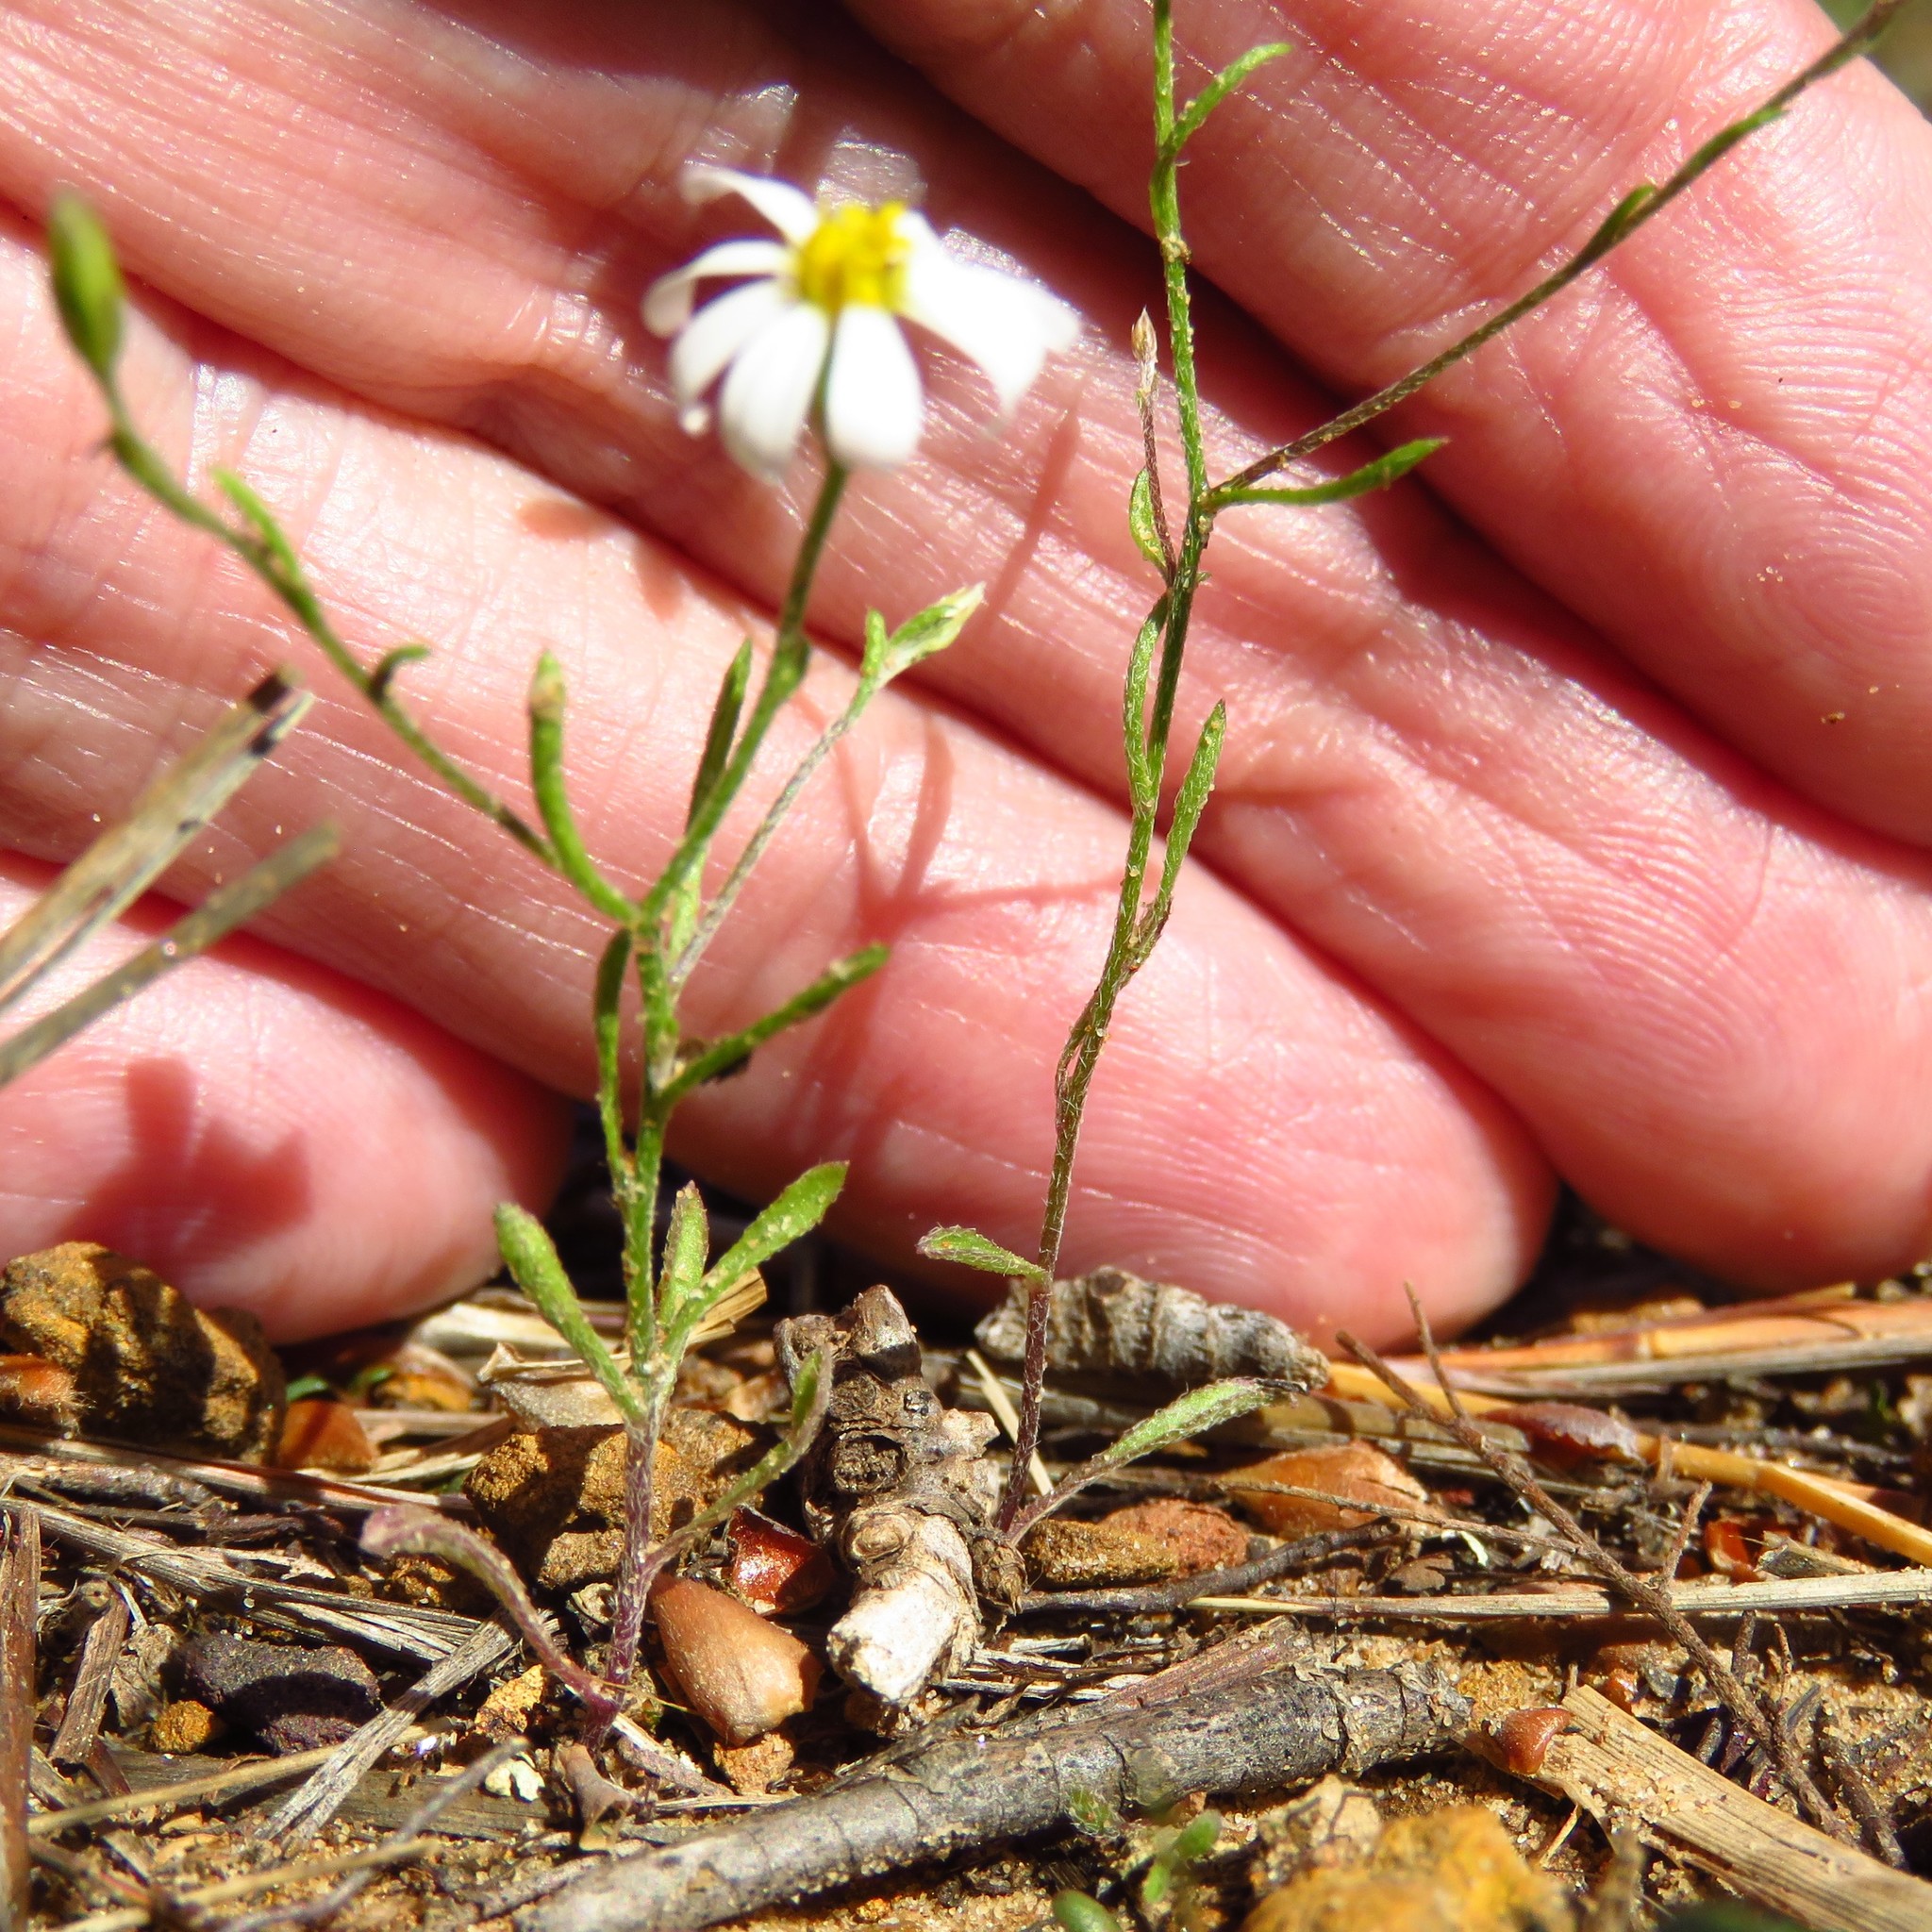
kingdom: Plantae
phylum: Tracheophyta
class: Magnoliopsida
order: Asterales
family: Asteraceae
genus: Chaetopappa
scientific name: Chaetopappa asteroides
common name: Tiny lazy daisy
